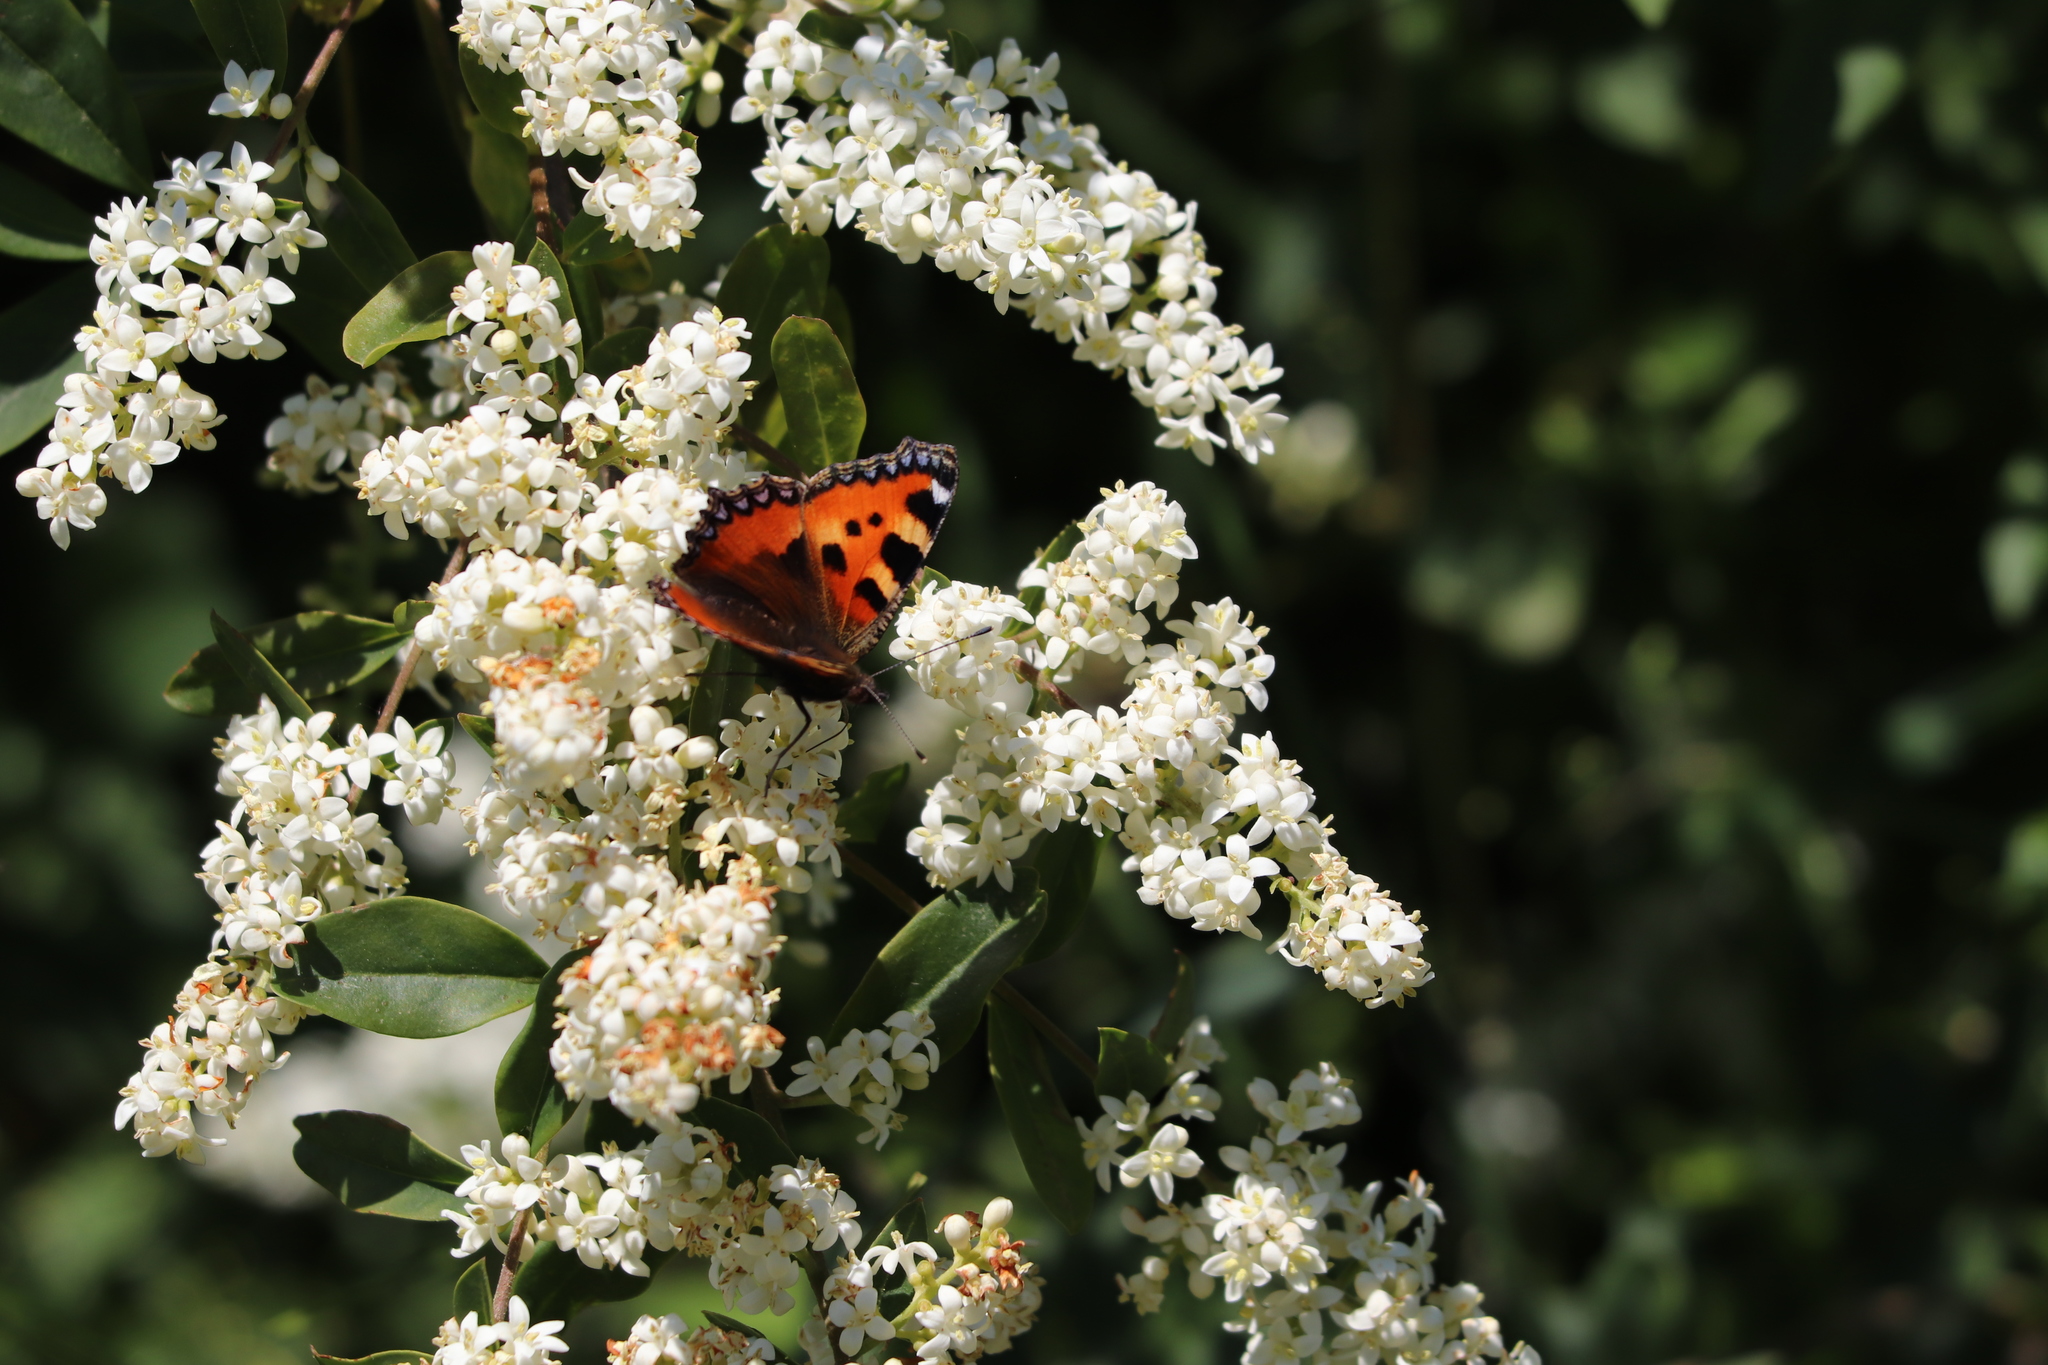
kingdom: Animalia
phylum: Arthropoda
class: Insecta
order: Lepidoptera
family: Nymphalidae
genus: Aglais
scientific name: Aglais urticae
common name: Small tortoiseshell
